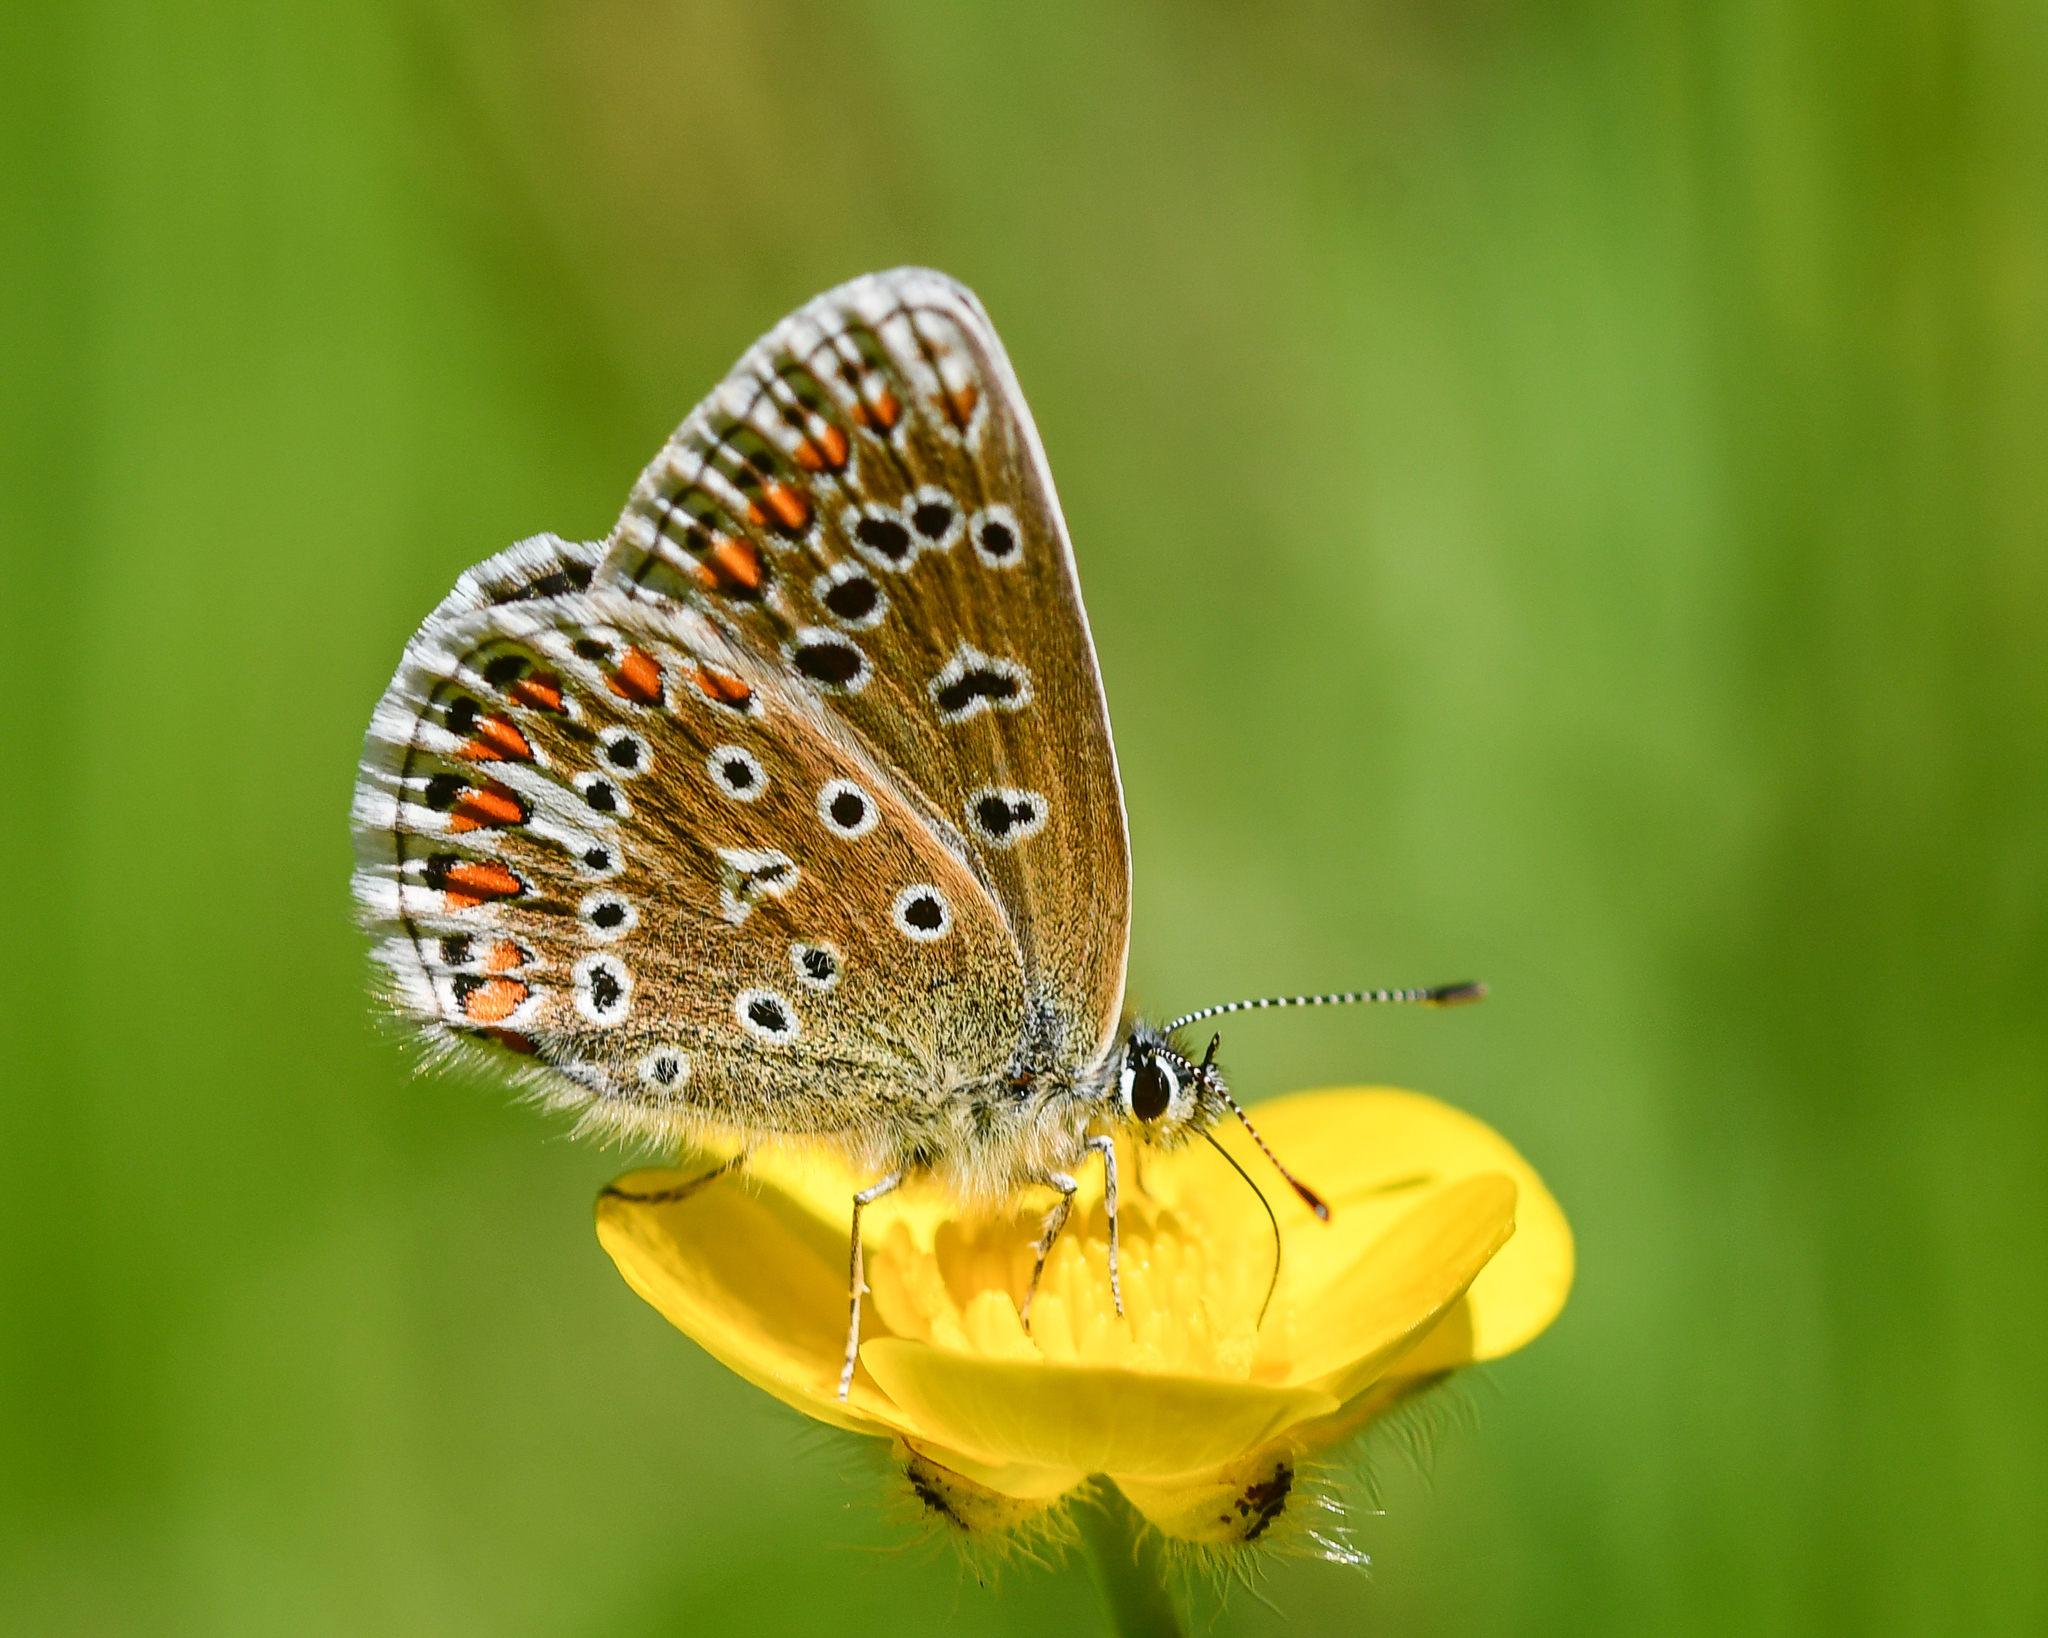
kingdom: Animalia
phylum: Arthropoda
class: Insecta
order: Lepidoptera
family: Lycaenidae
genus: Polyommatus
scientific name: Polyommatus icarus
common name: Common blue
